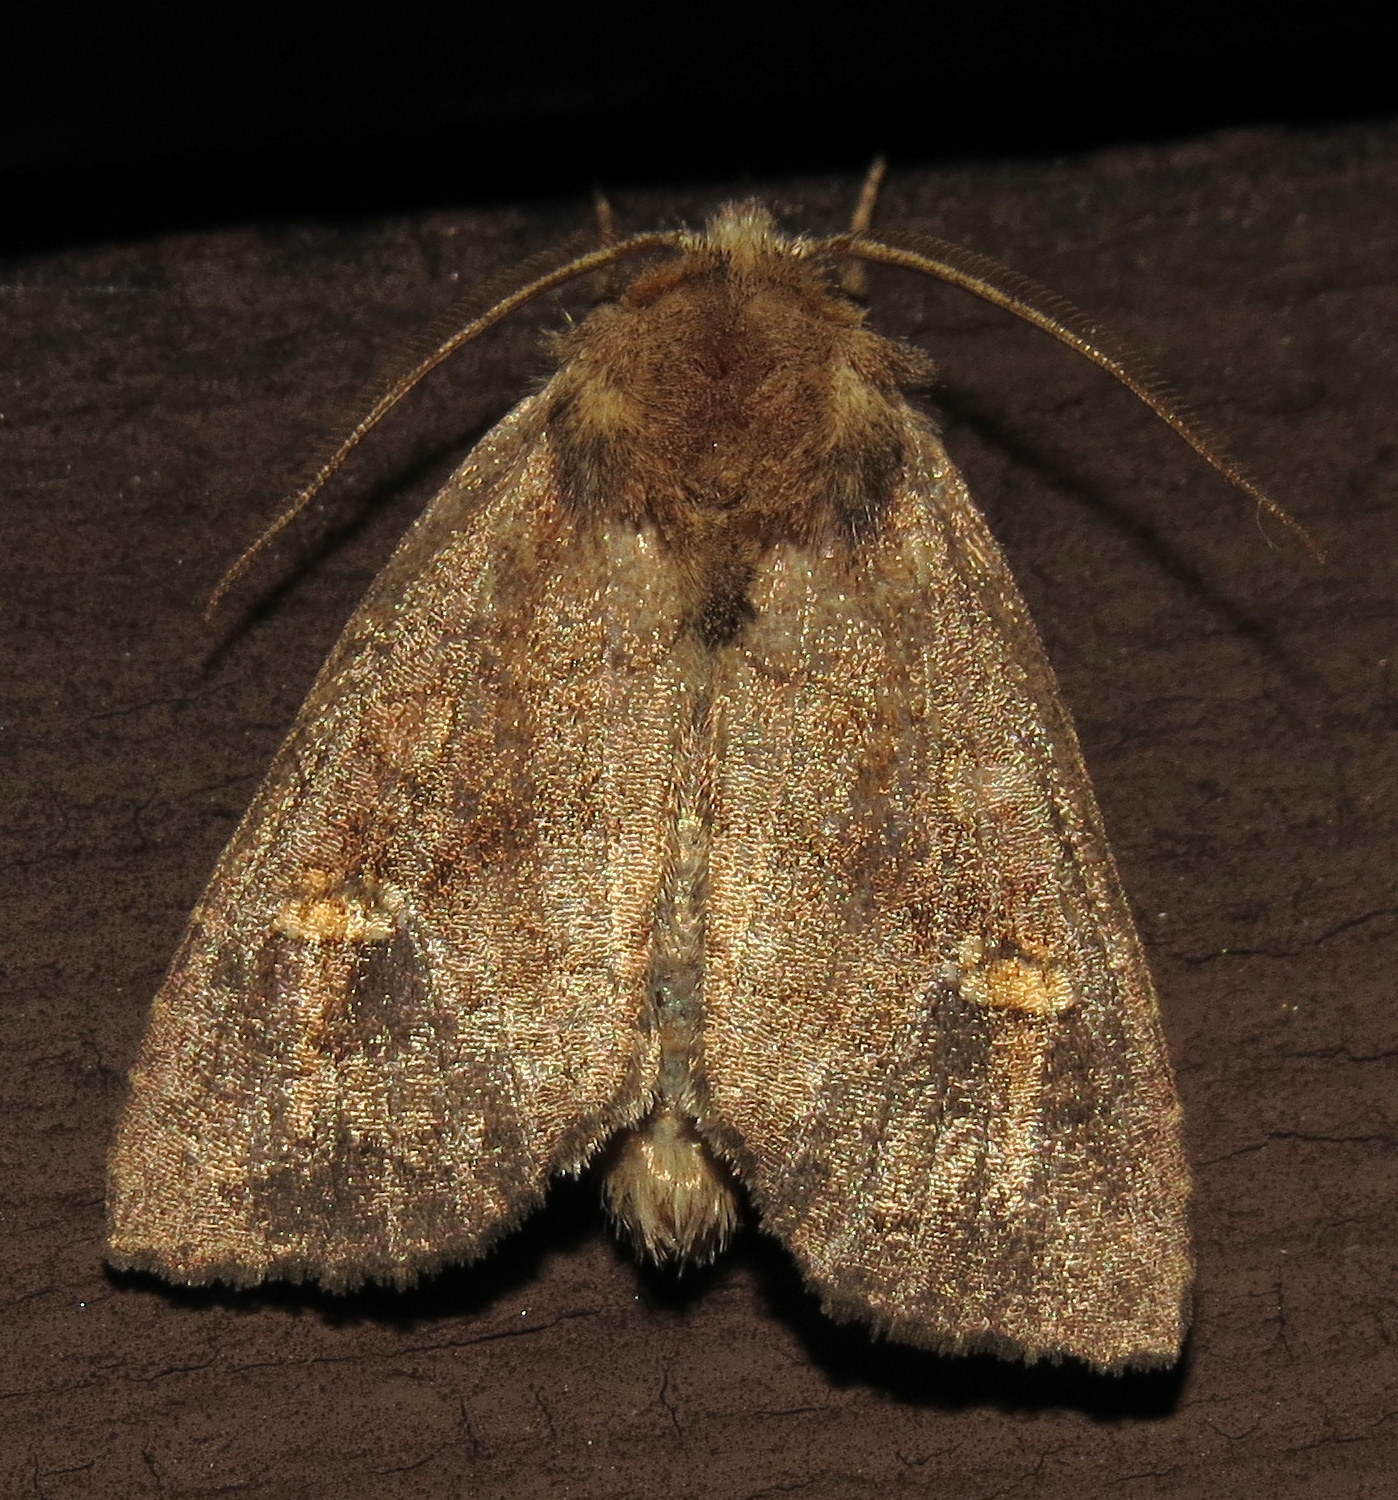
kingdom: Animalia
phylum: Arthropoda
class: Insecta
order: Lepidoptera
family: Noctuidae
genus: Tricholita
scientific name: Tricholita signata
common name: Signate quaker
